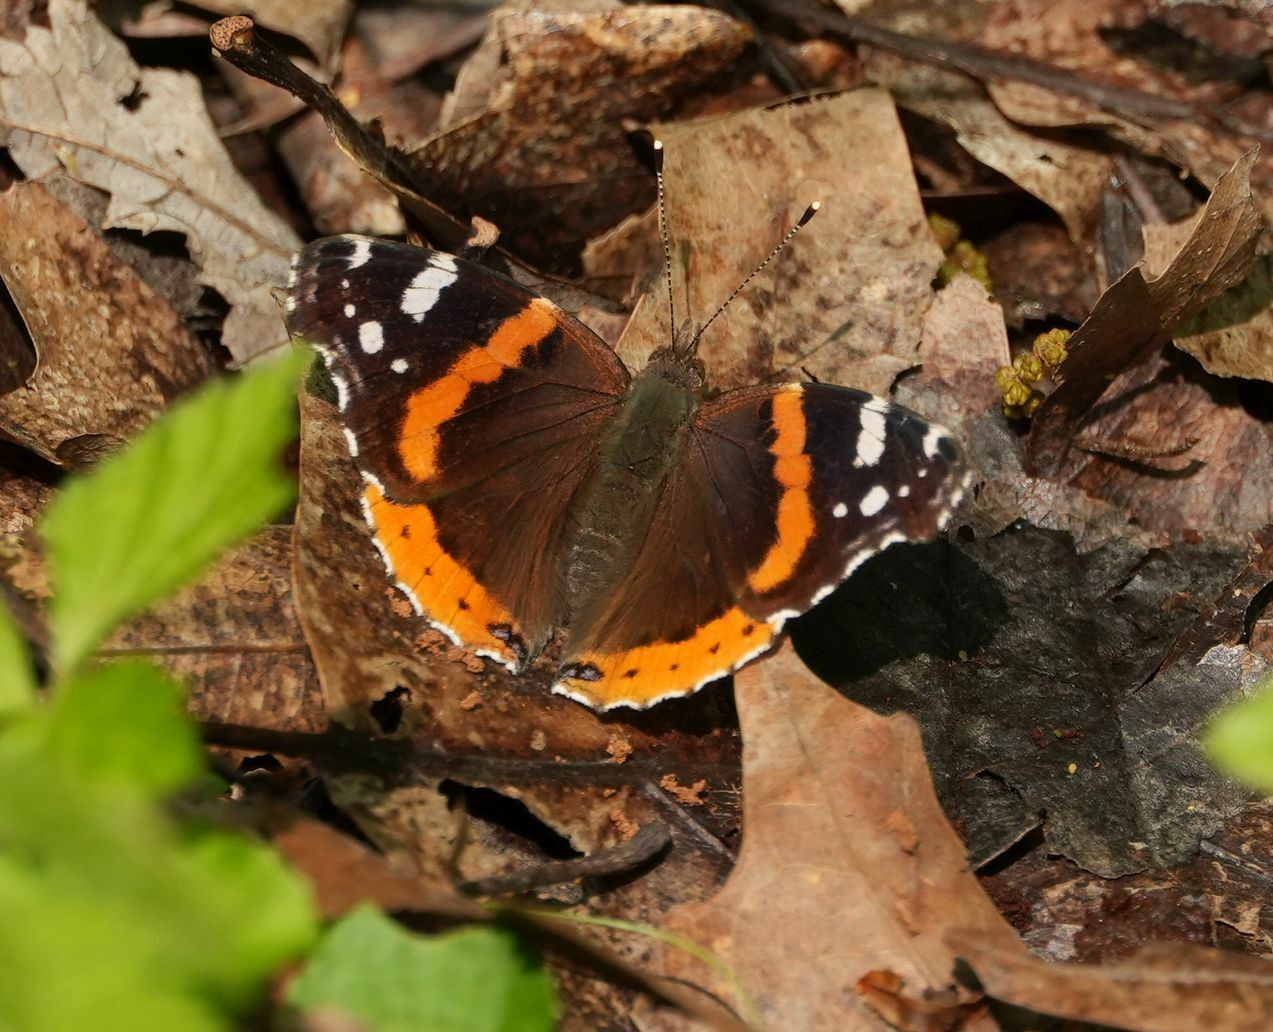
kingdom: Animalia
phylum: Arthropoda
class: Insecta
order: Lepidoptera
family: Nymphalidae
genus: Vanessa
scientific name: Vanessa atalanta
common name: Red admiral
